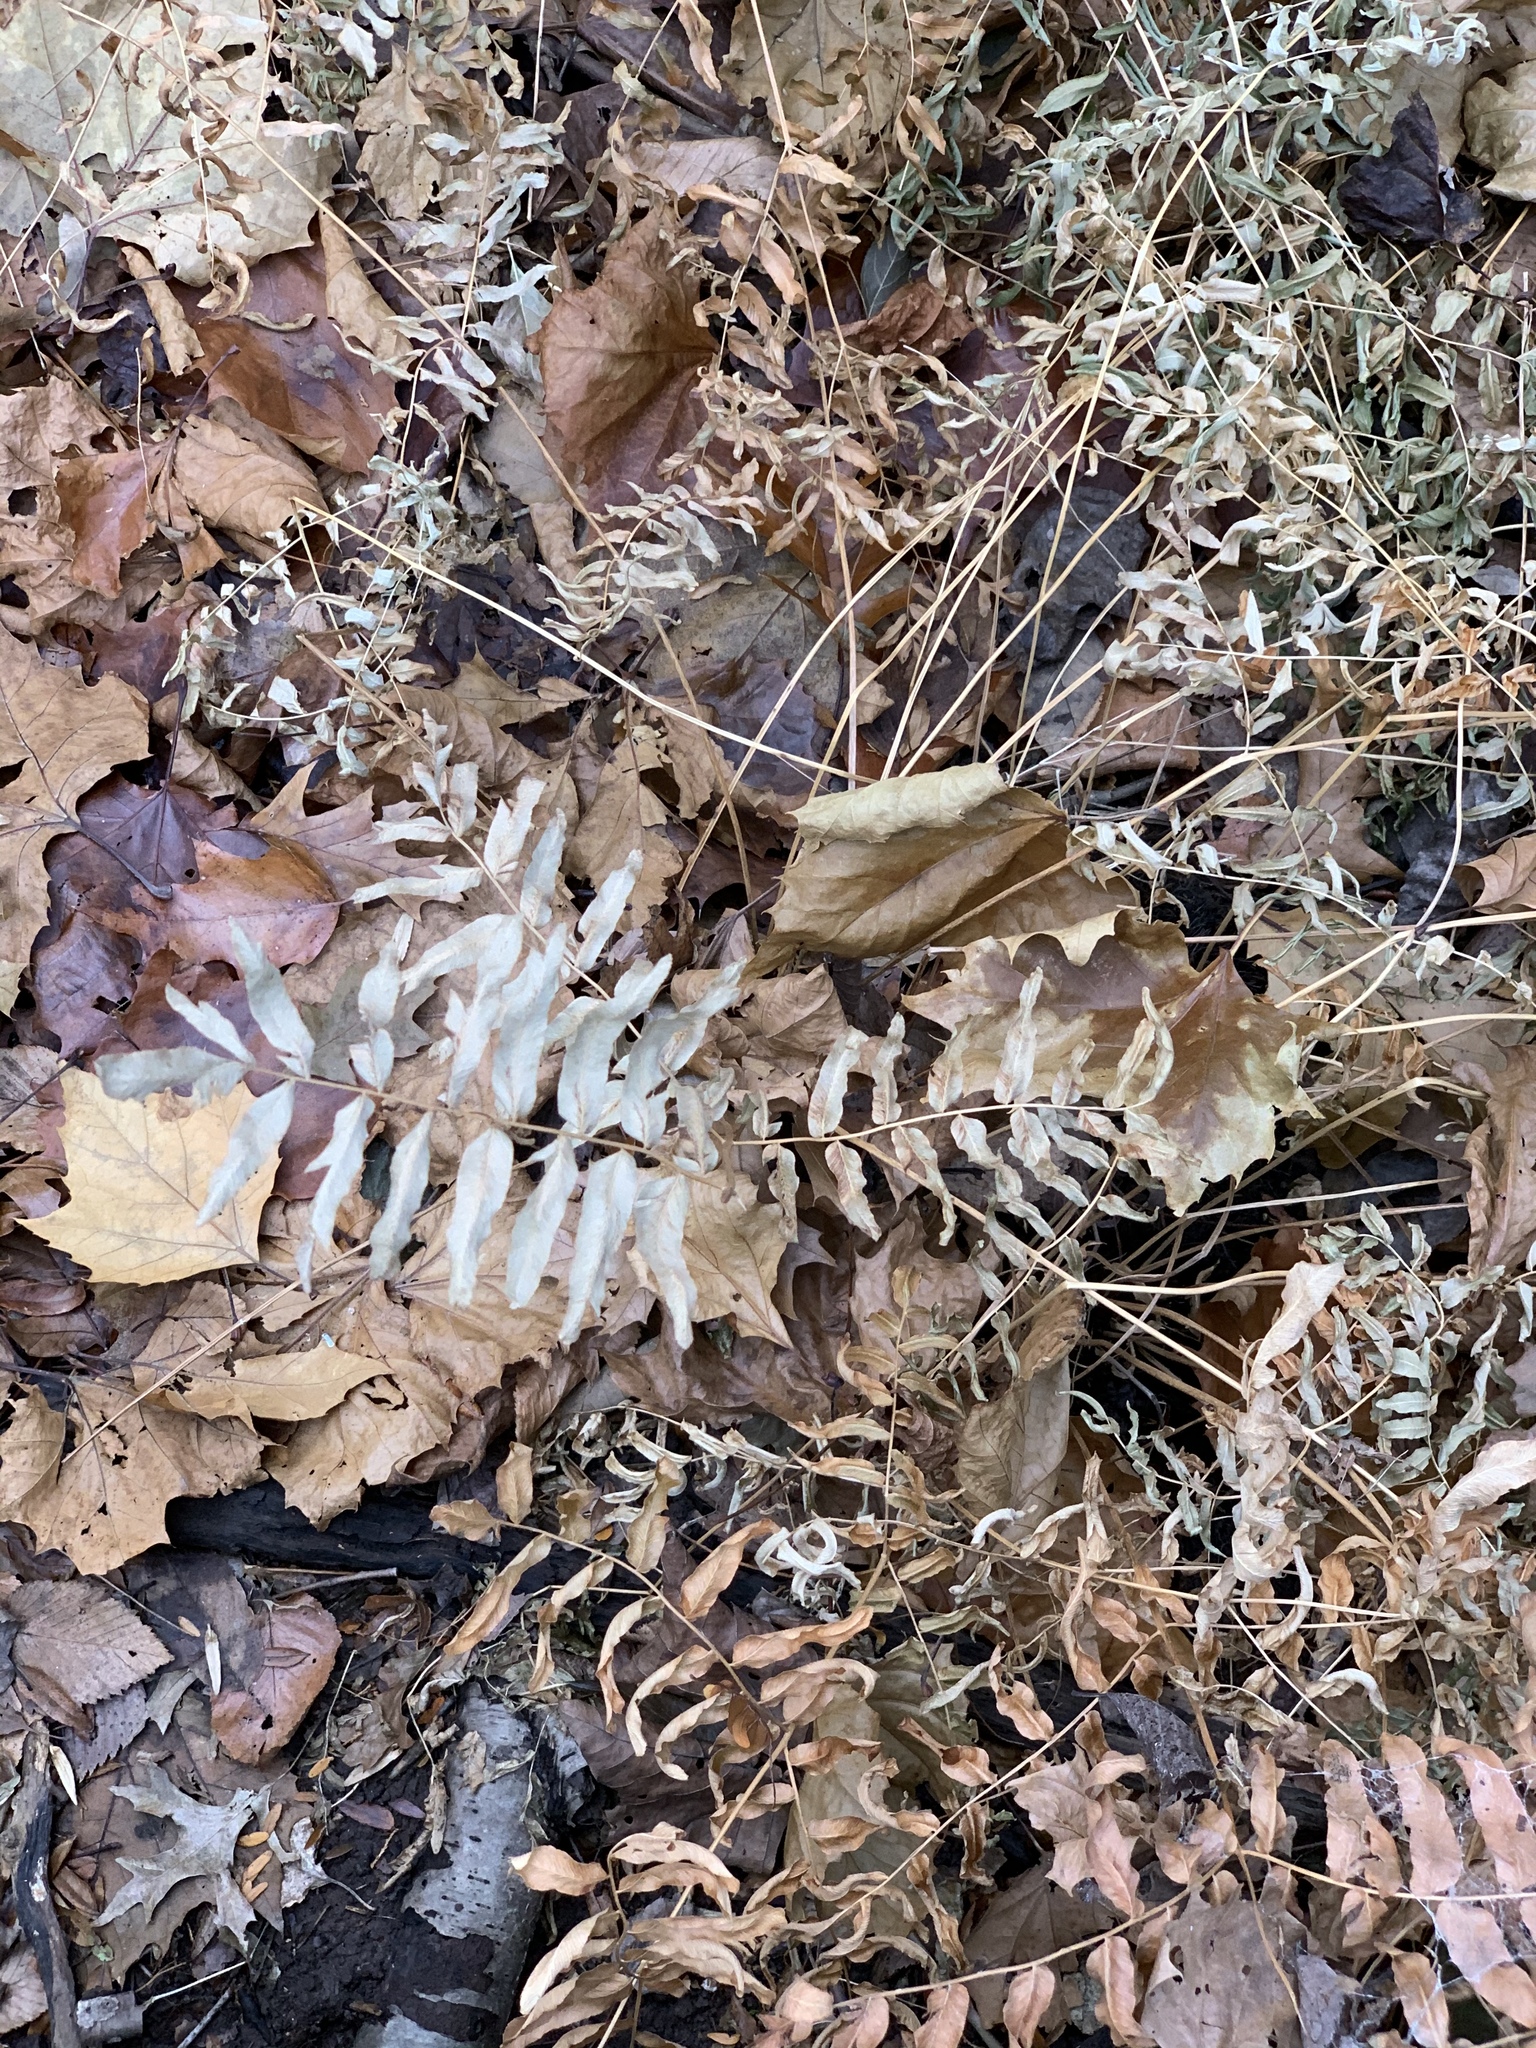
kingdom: Plantae
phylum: Tracheophyta
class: Polypodiopsida
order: Osmundales
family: Osmundaceae
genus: Osmunda
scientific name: Osmunda spectabilis
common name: American royal fern
